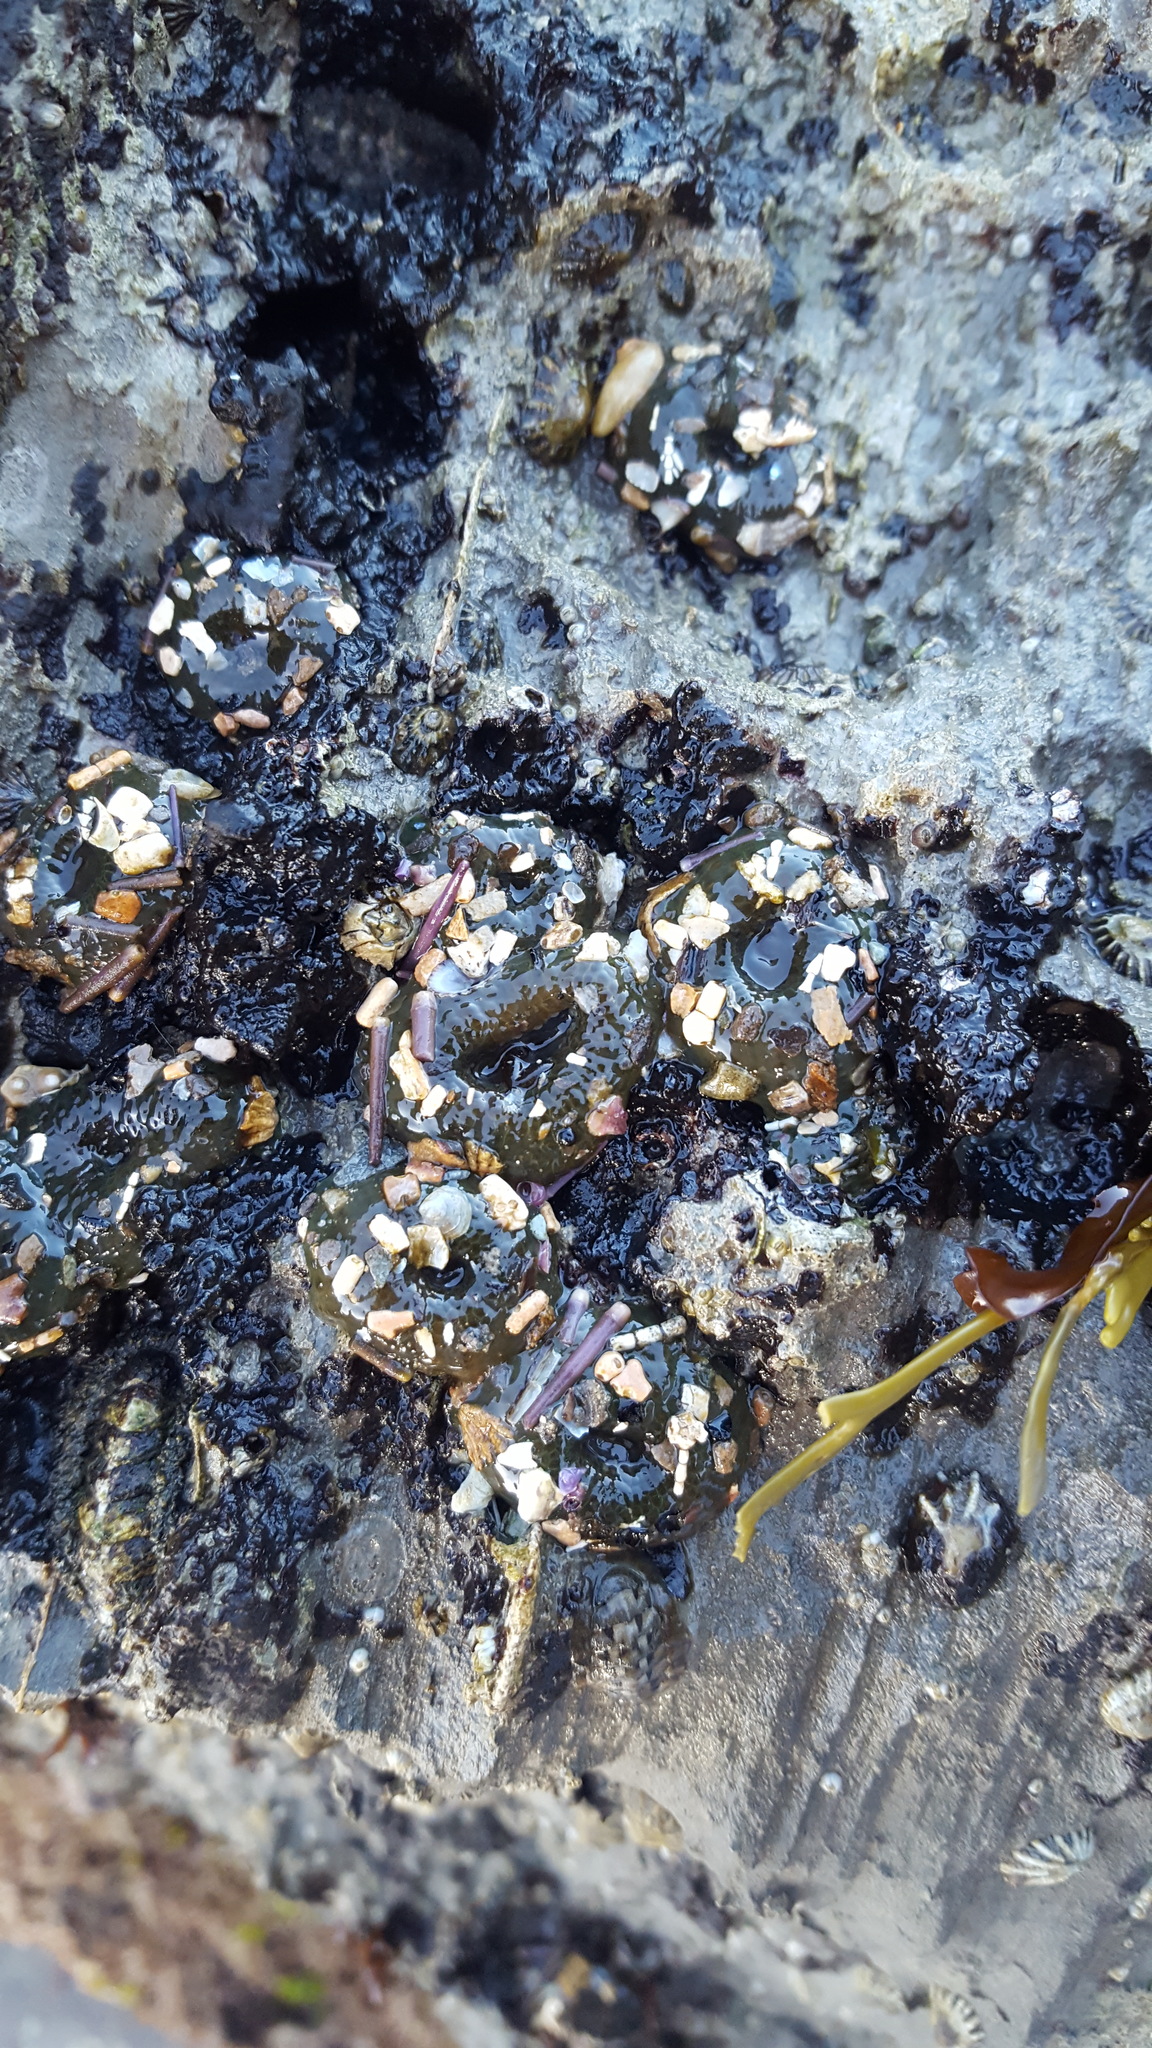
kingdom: Animalia
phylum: Cnidaria
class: Anthozoa
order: Actiniaria
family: Actiniidae
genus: Anthopleura
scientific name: Anthopleura elegantissima
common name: Clonal anemone
